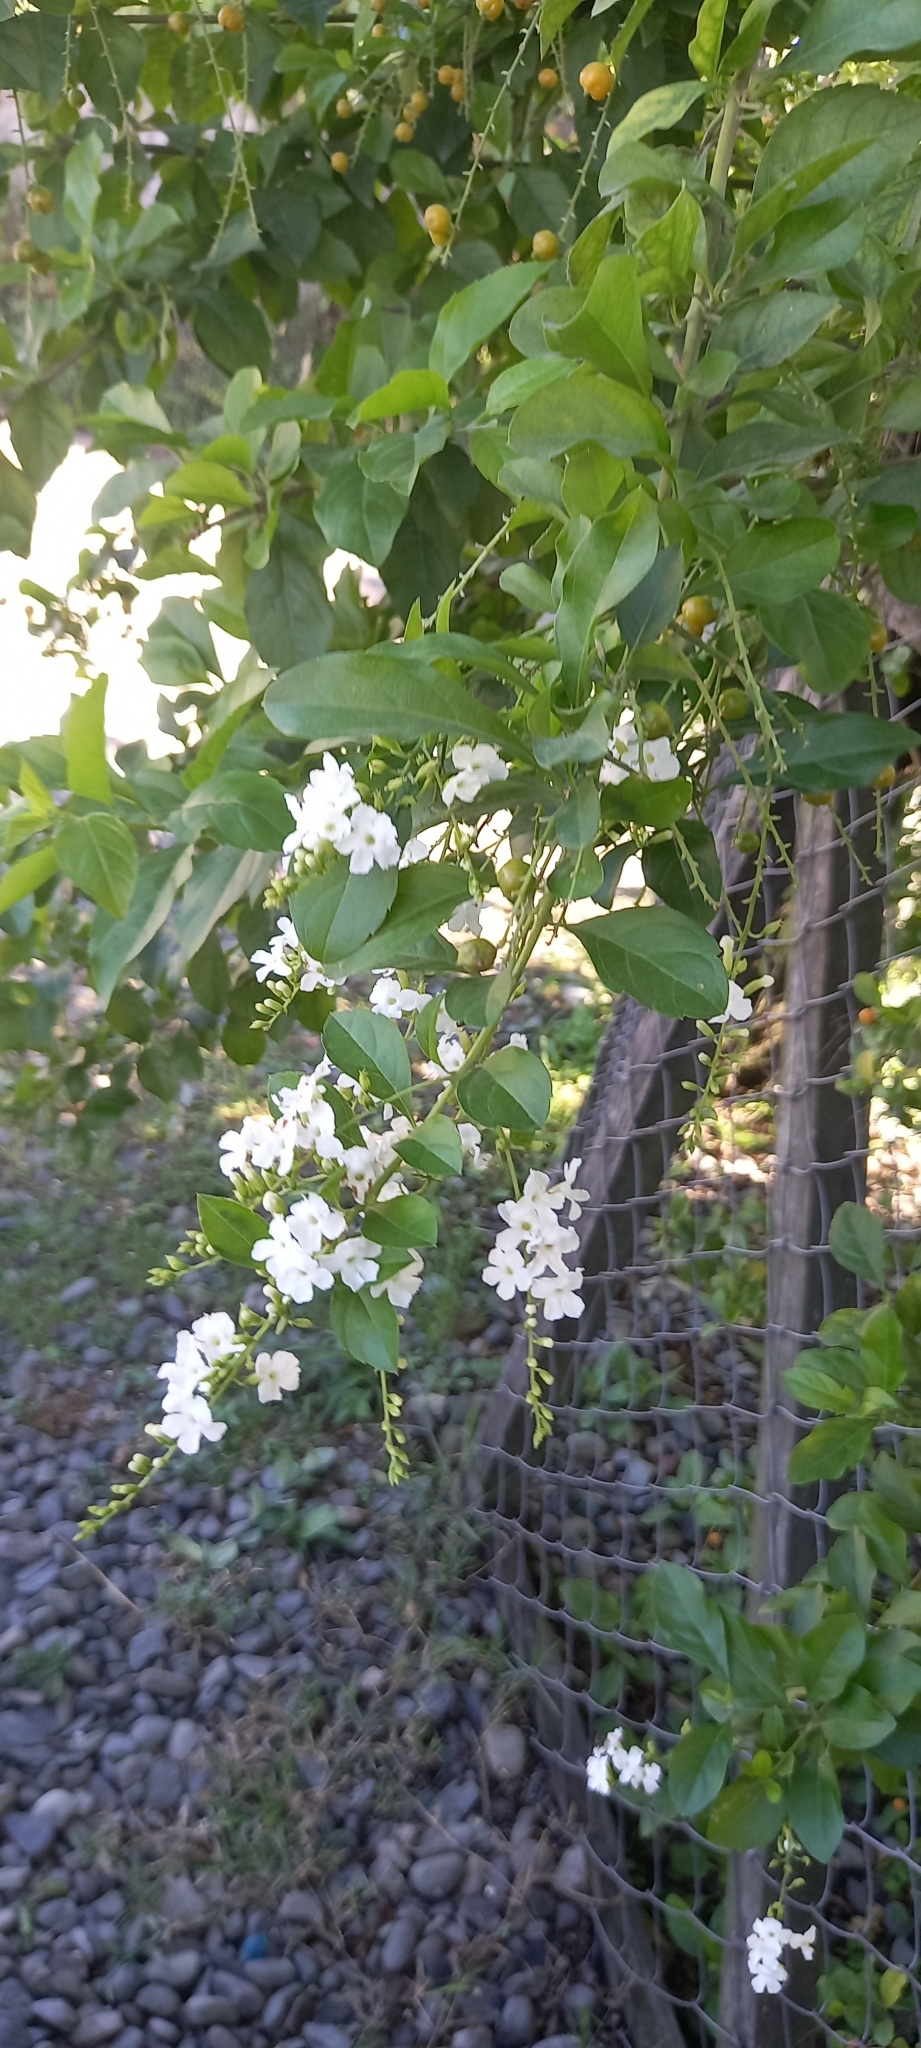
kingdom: Plantae
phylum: Tracheophyta
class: Magnoliopsida
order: Lamiales
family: Verbenaceae
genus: Duranta
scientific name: Duranta erecta
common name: Golden dewdrops
